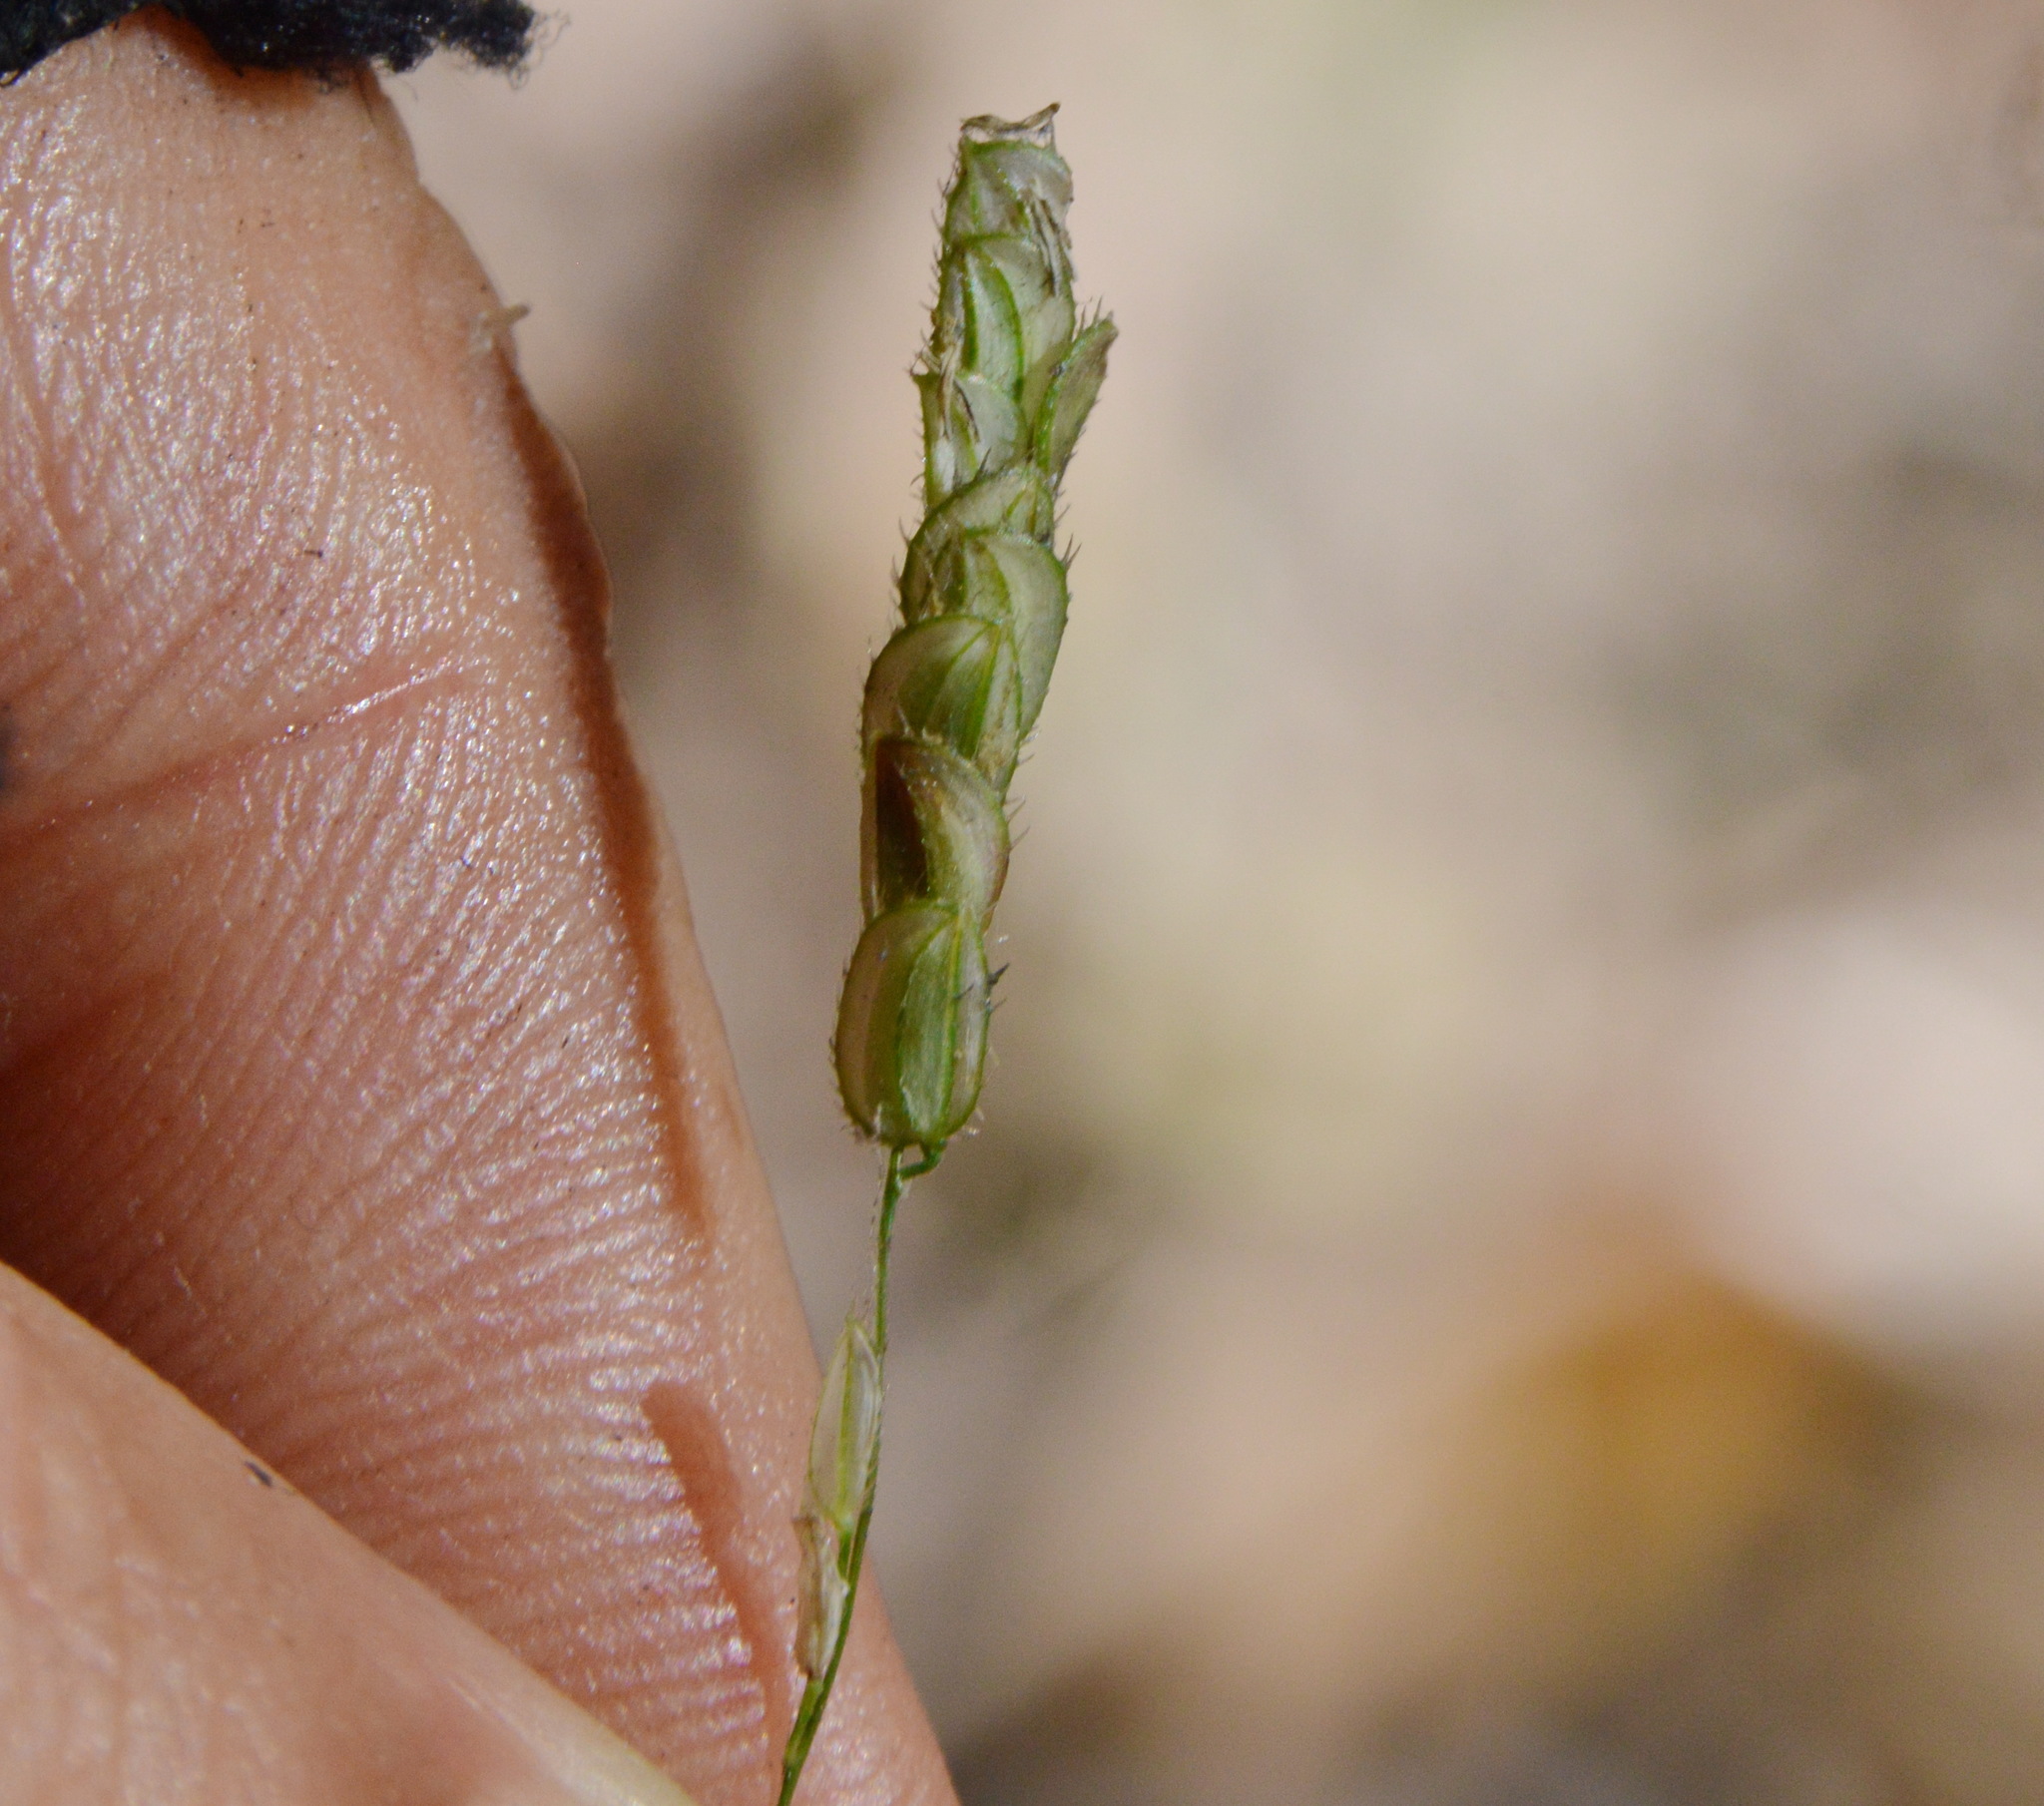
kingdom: Plantae
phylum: Tracheophyta
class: Liliopsida
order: Poales
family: Poaceae
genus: Leersia
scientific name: Leersia lenticularis
